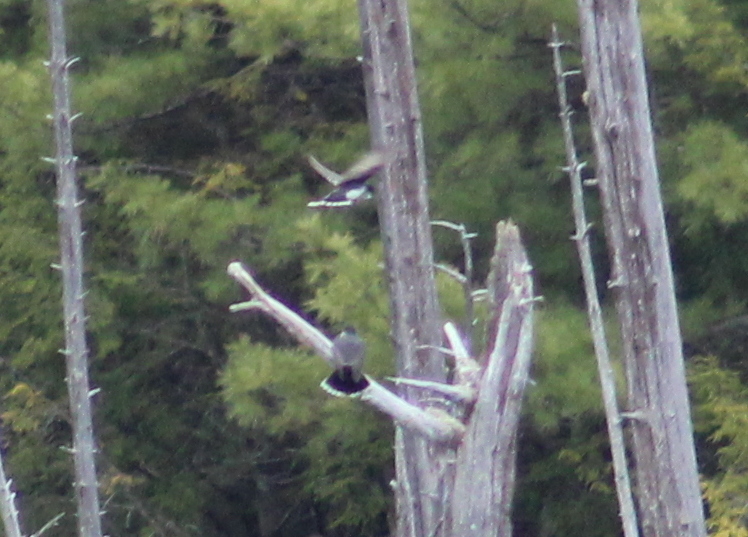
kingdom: Animalia
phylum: Chordata
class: Aves
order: Passeriformes
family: Tyrannidae
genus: Tyrannus
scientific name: Tyrannus tyrannus
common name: Eastern kingbird
